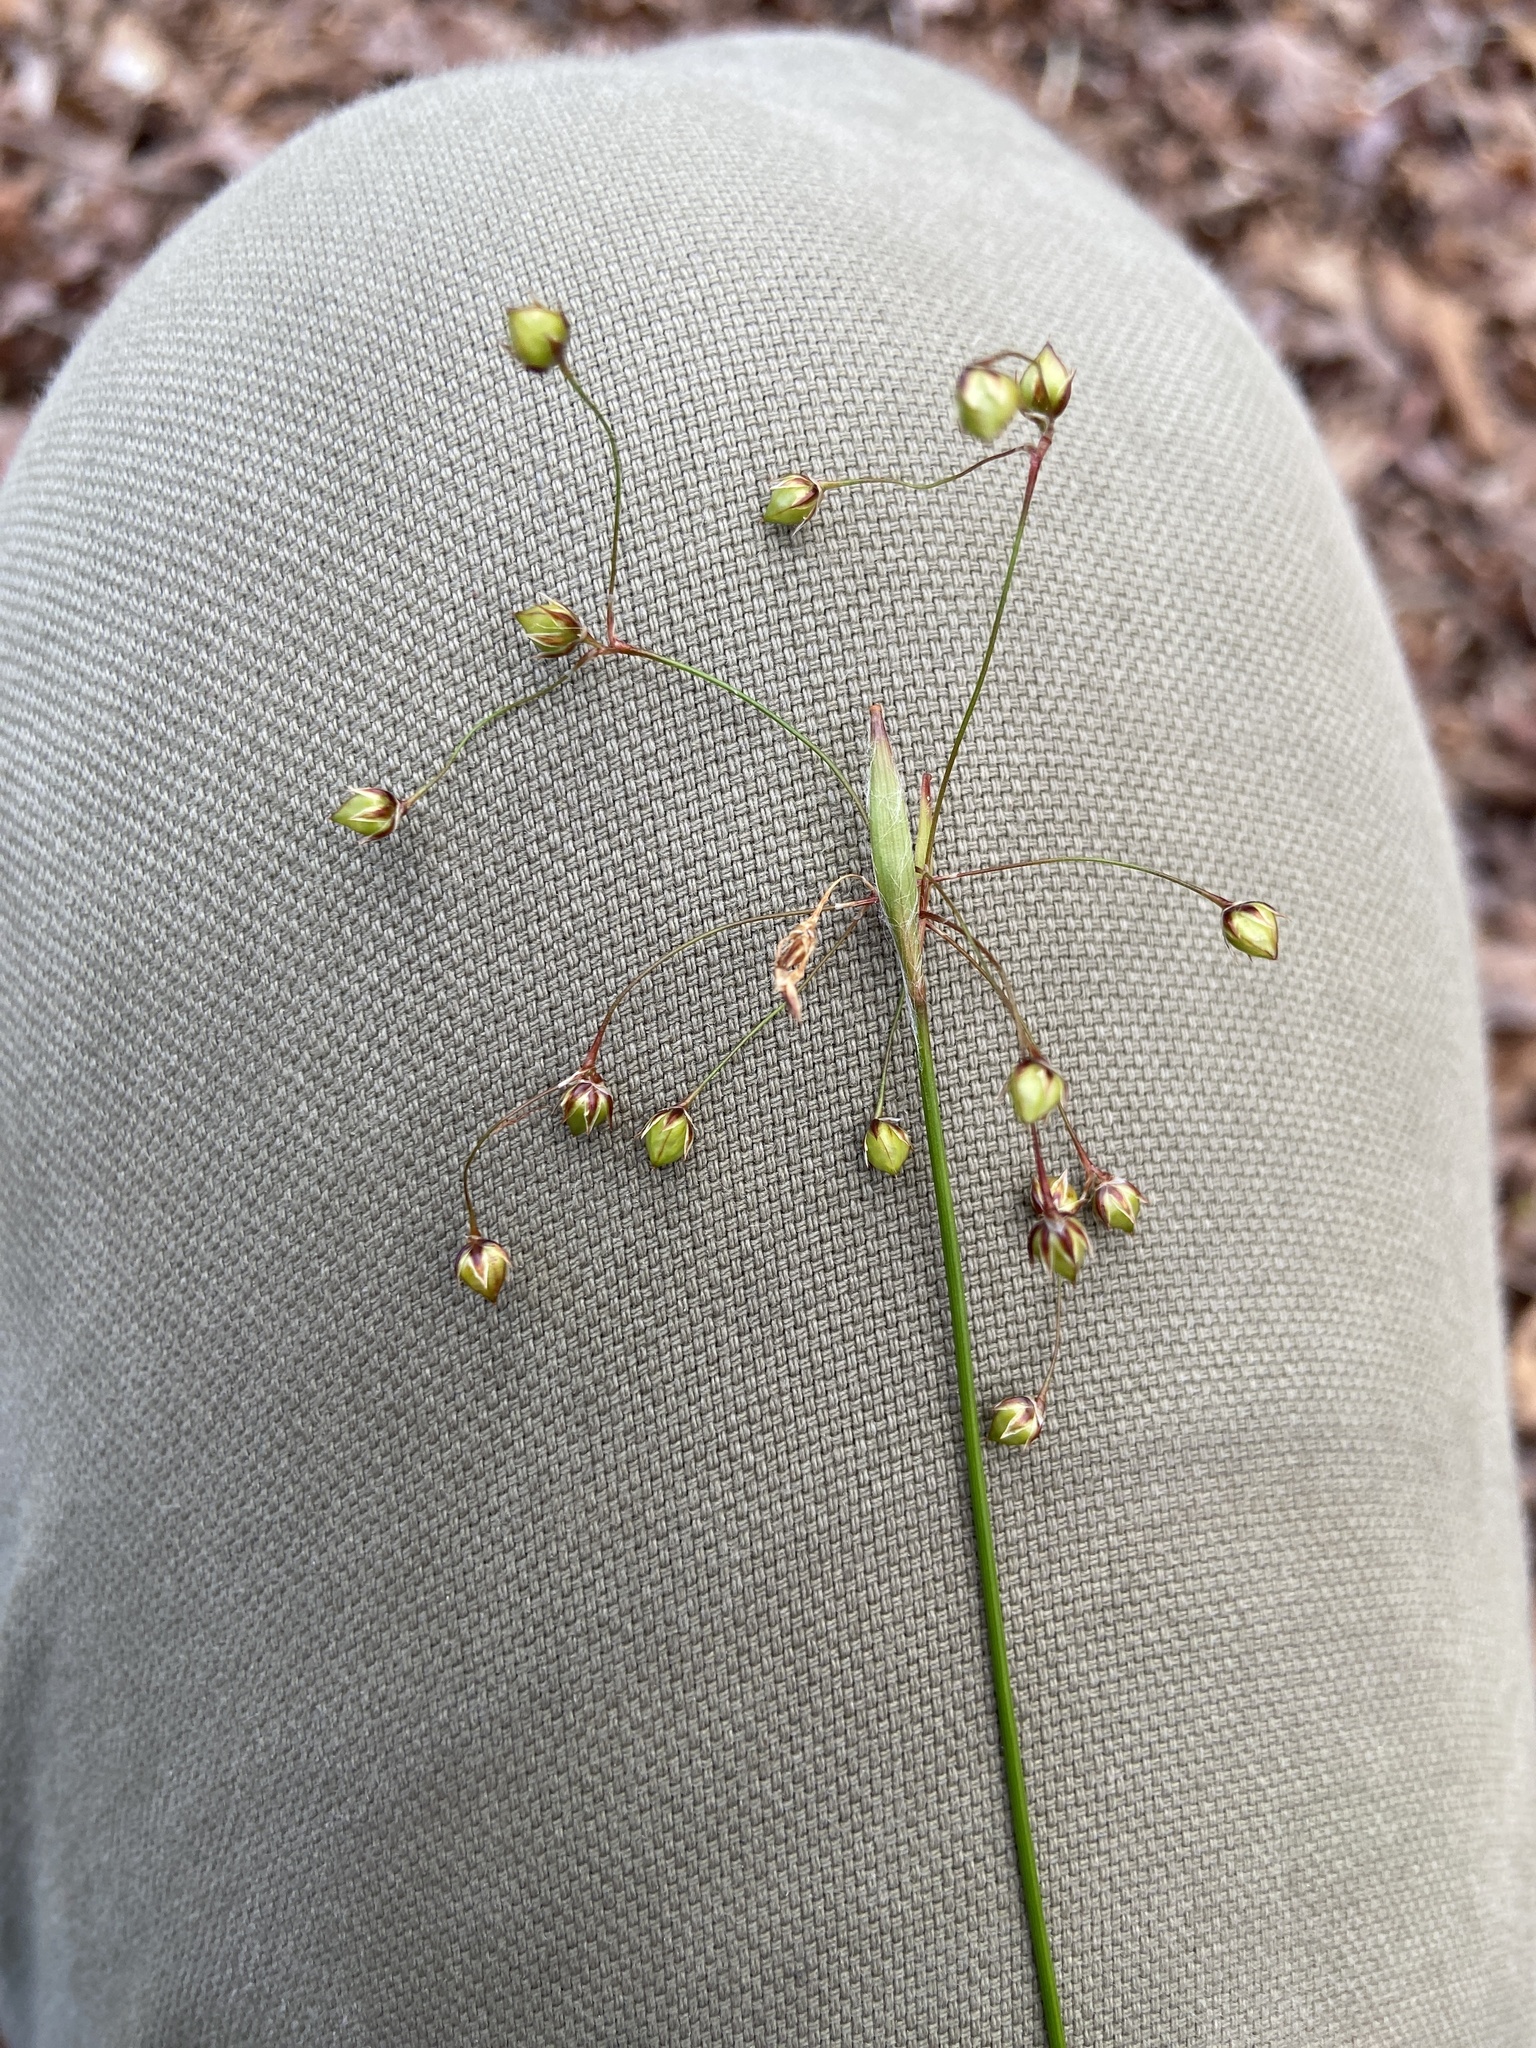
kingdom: Plantae
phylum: Tracheophyta
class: Liliopsida
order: Poales
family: Juncaceae
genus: Luzula
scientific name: Luzula acuminata
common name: Hairy woodrush
